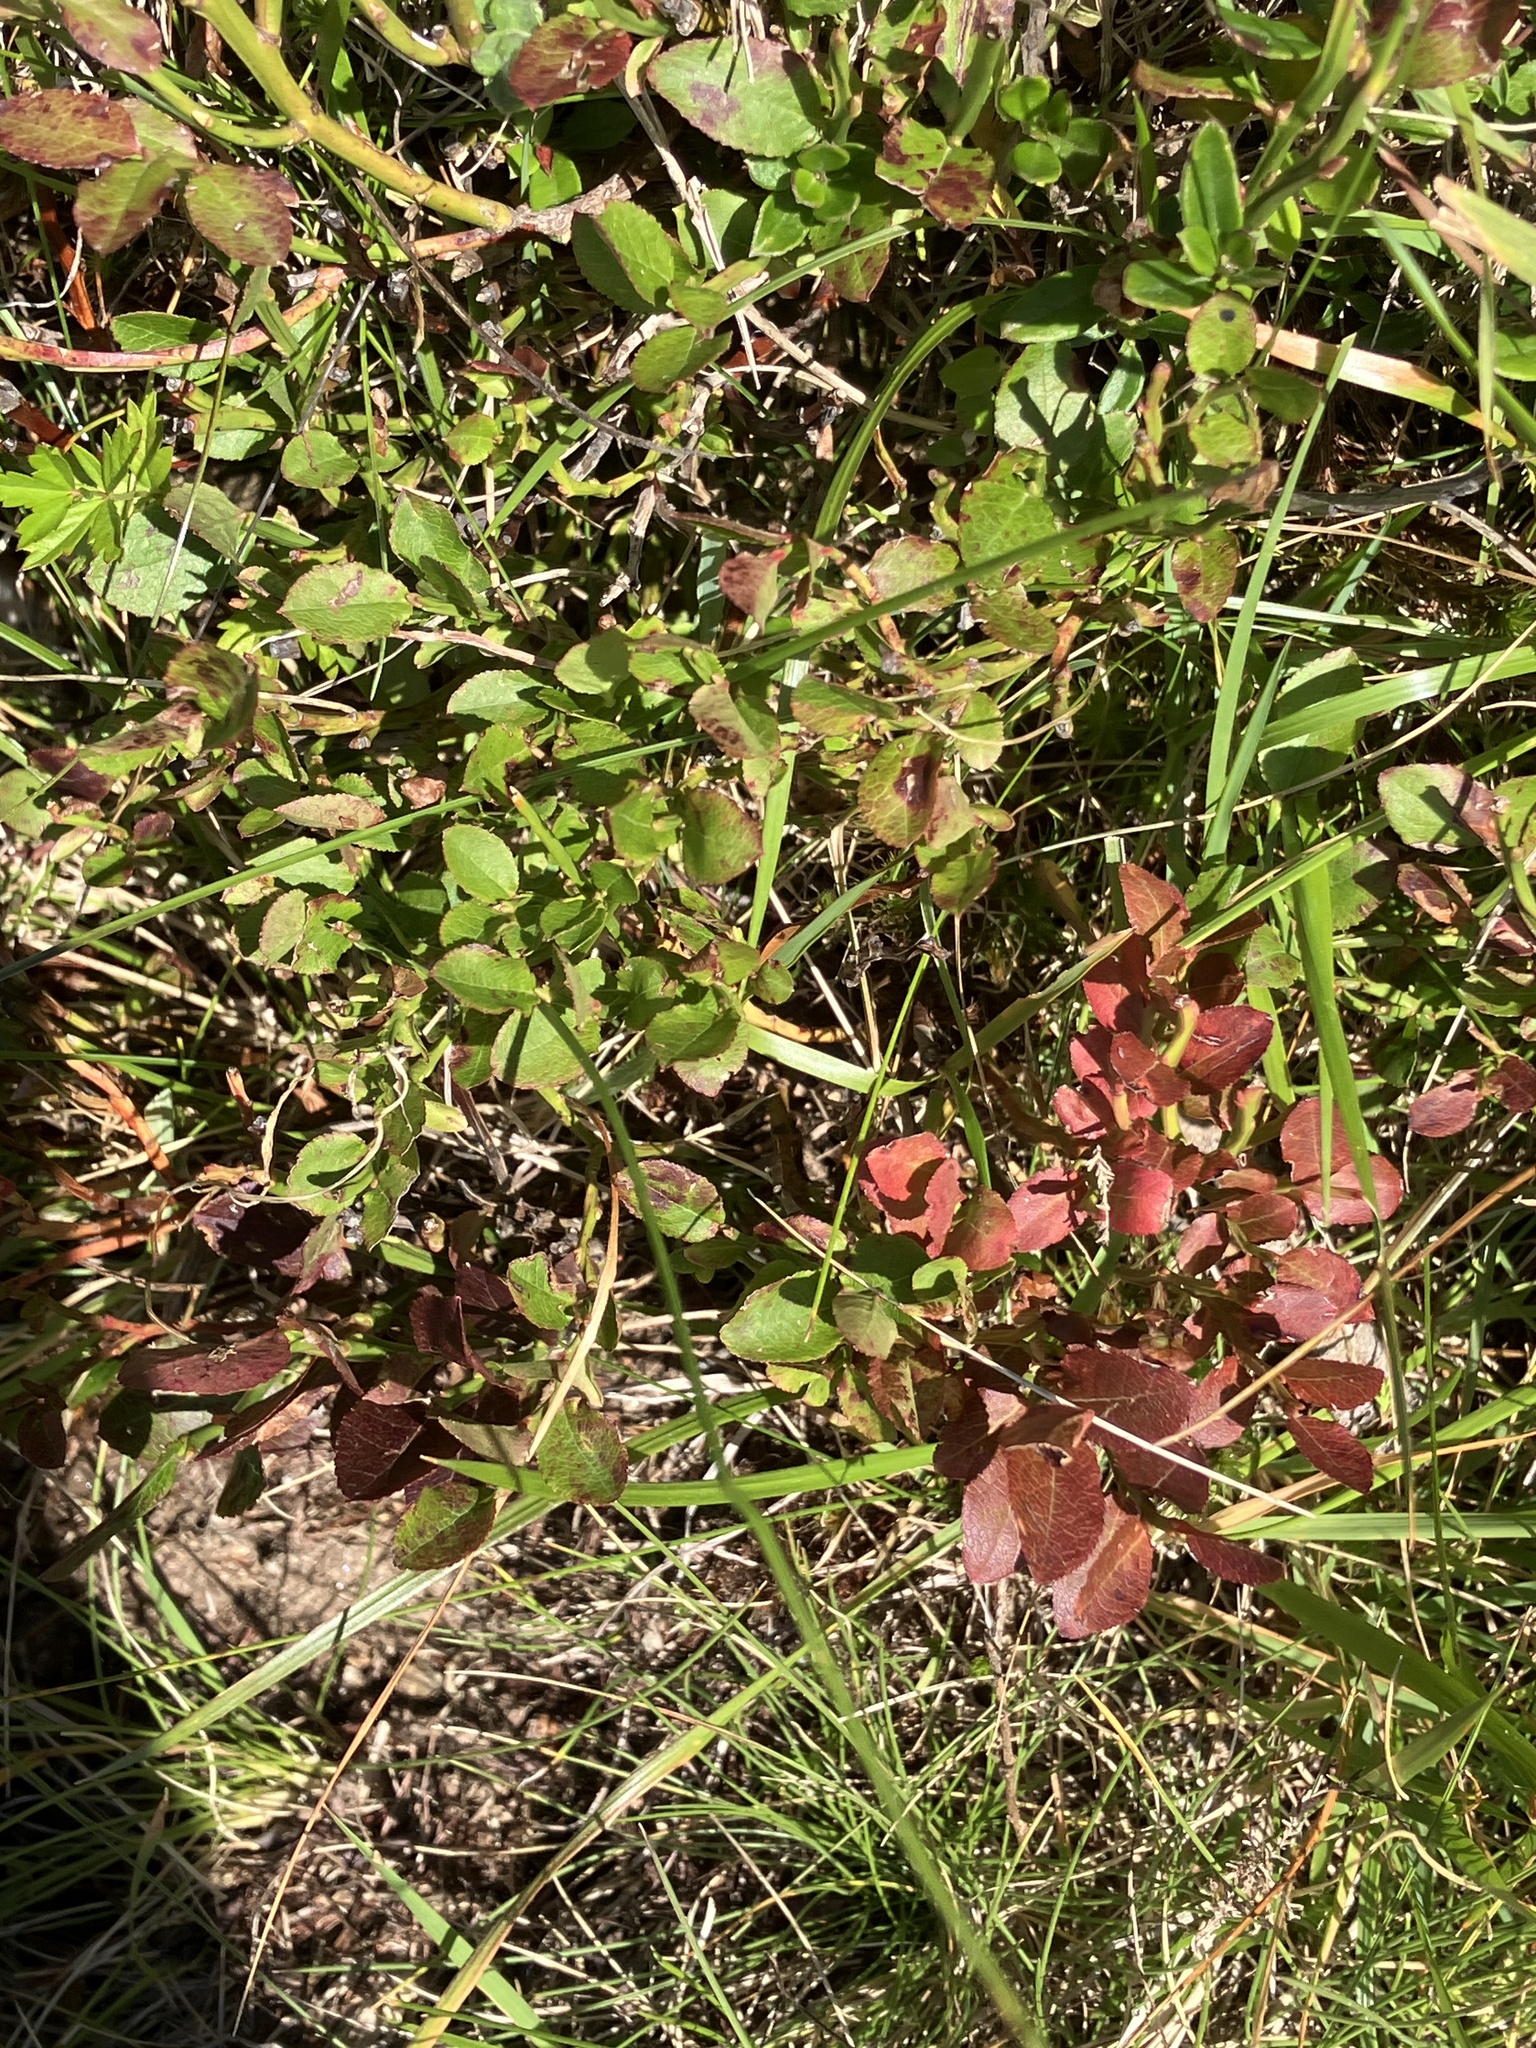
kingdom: Plantae
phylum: Tracheophyta
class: Magnoliopsida
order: Ericales
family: Ericaceae
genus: Vaccinium
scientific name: Vaccinium myrtillus
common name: Bilberry
